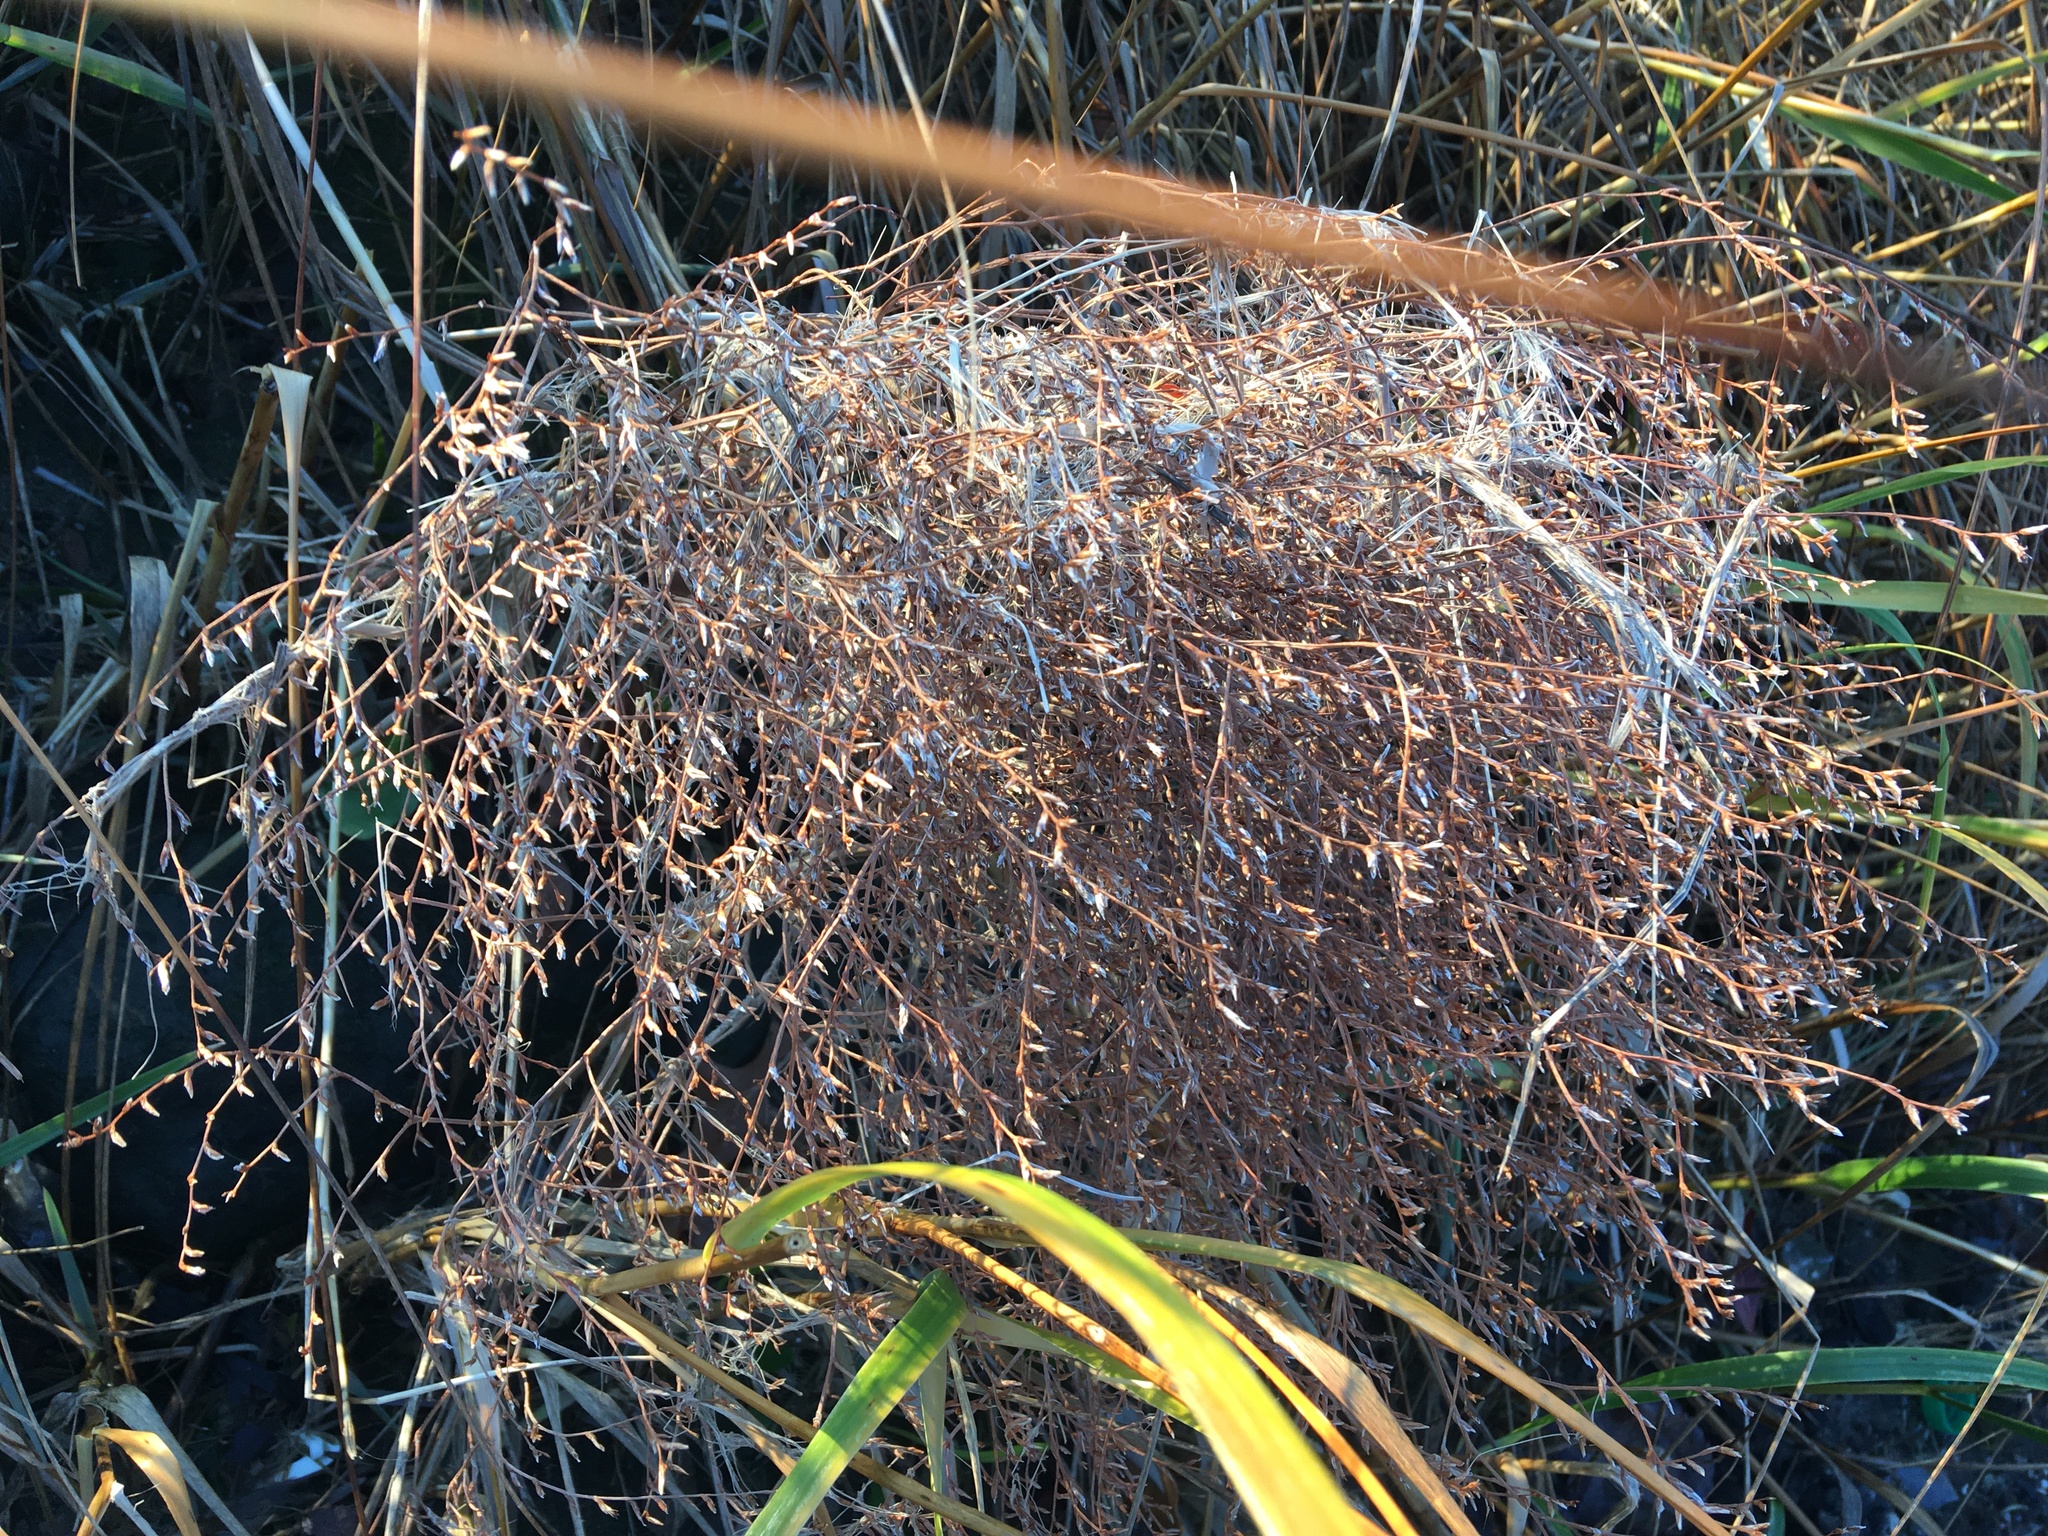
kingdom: Plantae
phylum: Tracheophyta
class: Magnoliopsida
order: Caryophyllales
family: Plumbaginaceae
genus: Limonium
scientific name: Limonium carolinianum
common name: Carolina sea lavender
